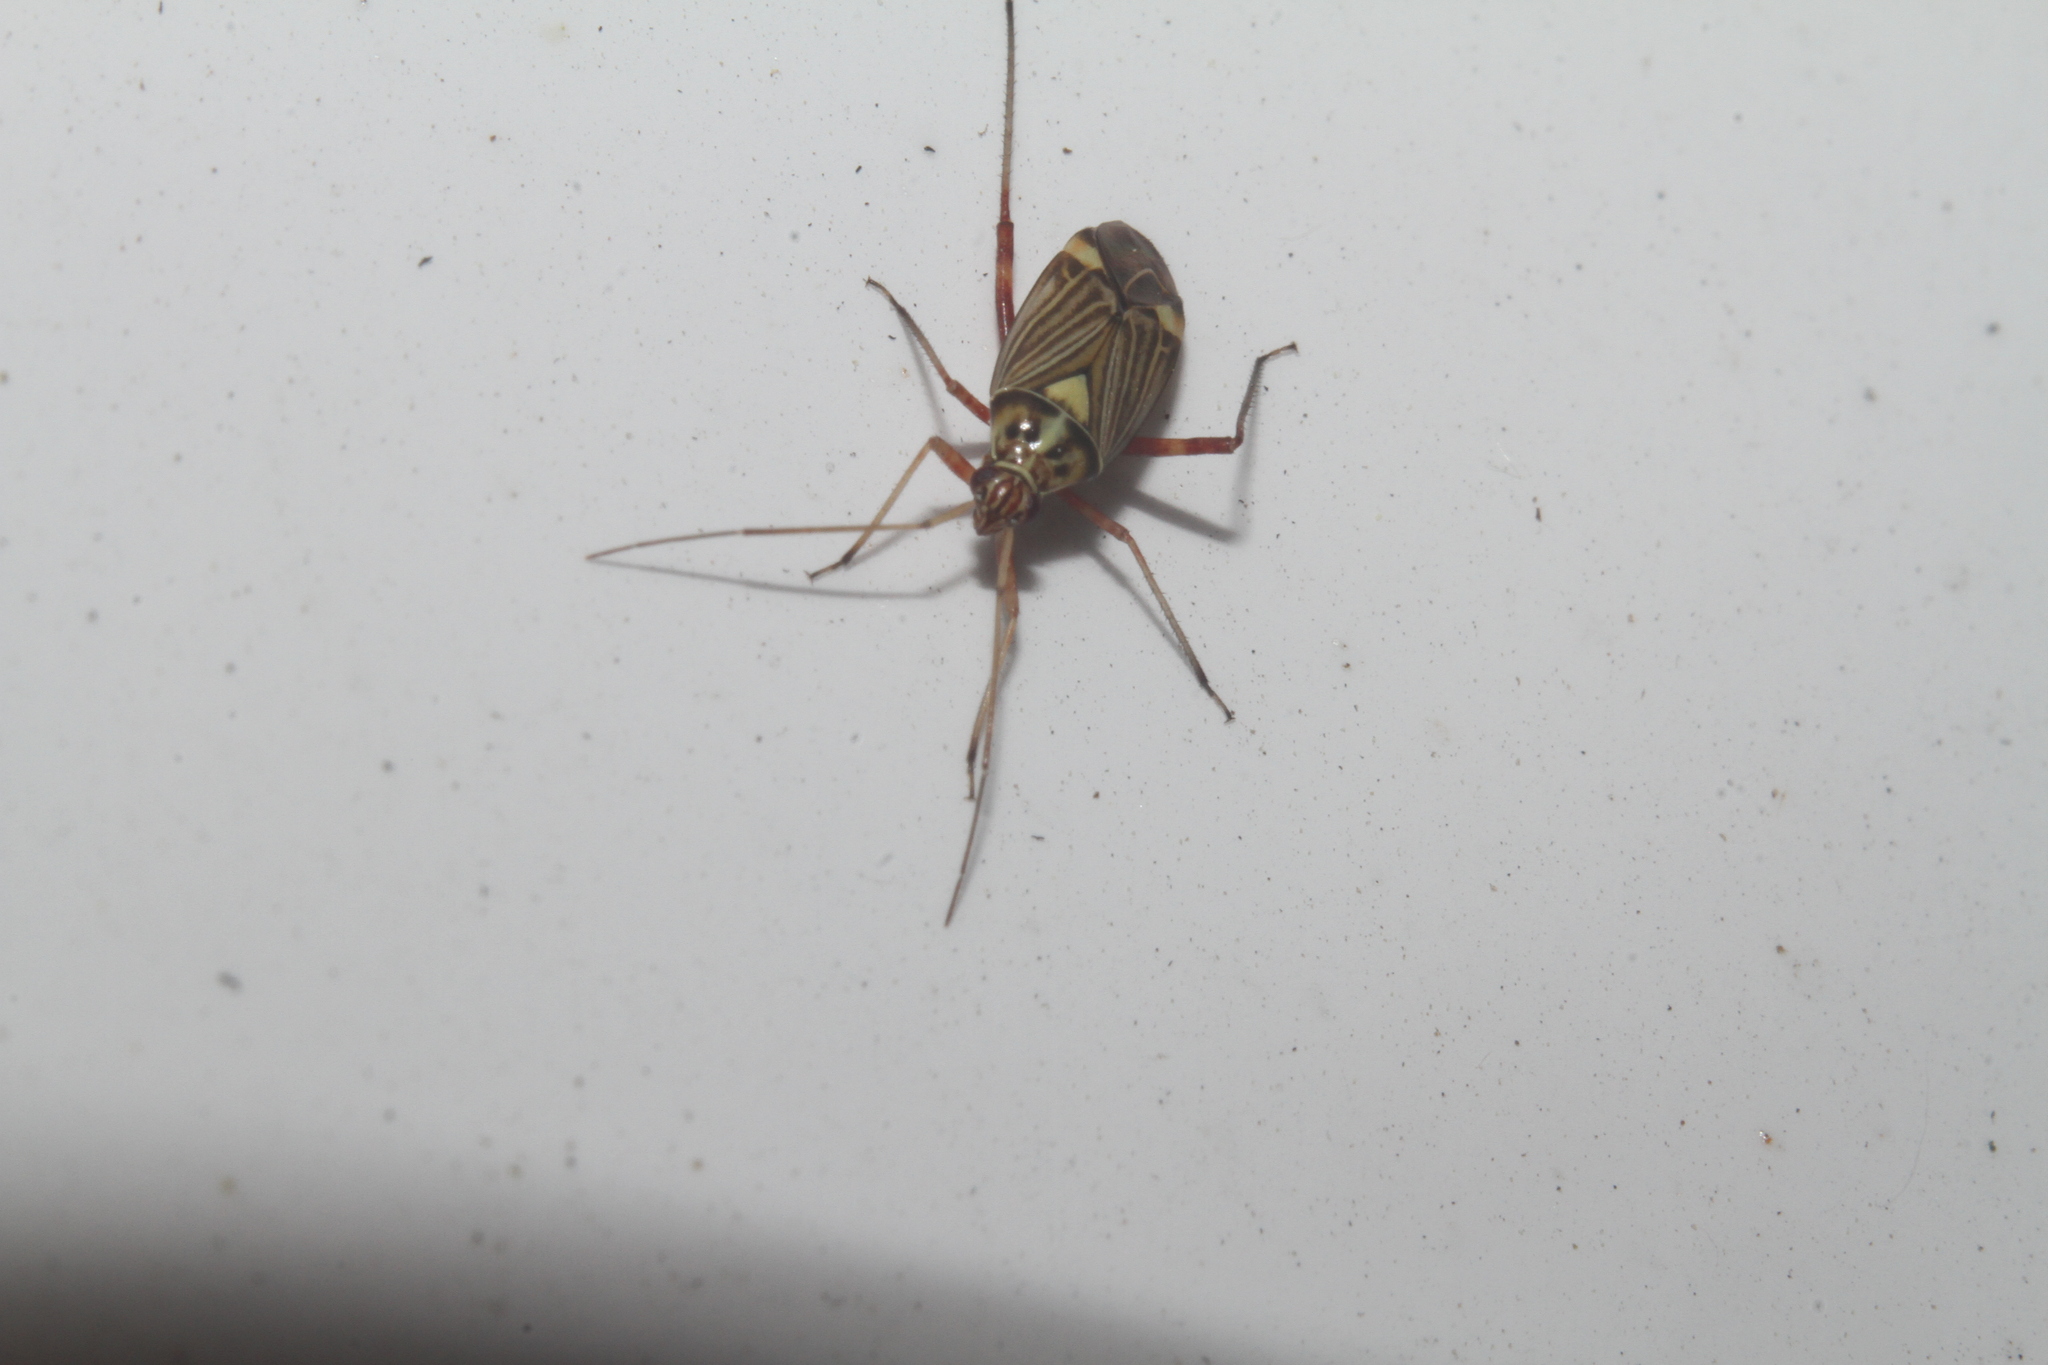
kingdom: Animalia
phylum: Arthropoda
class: Insecta
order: Hemiptera
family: Miridae
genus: Rhabdomiris
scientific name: Rhabdomiris striatellus
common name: Plant bug
